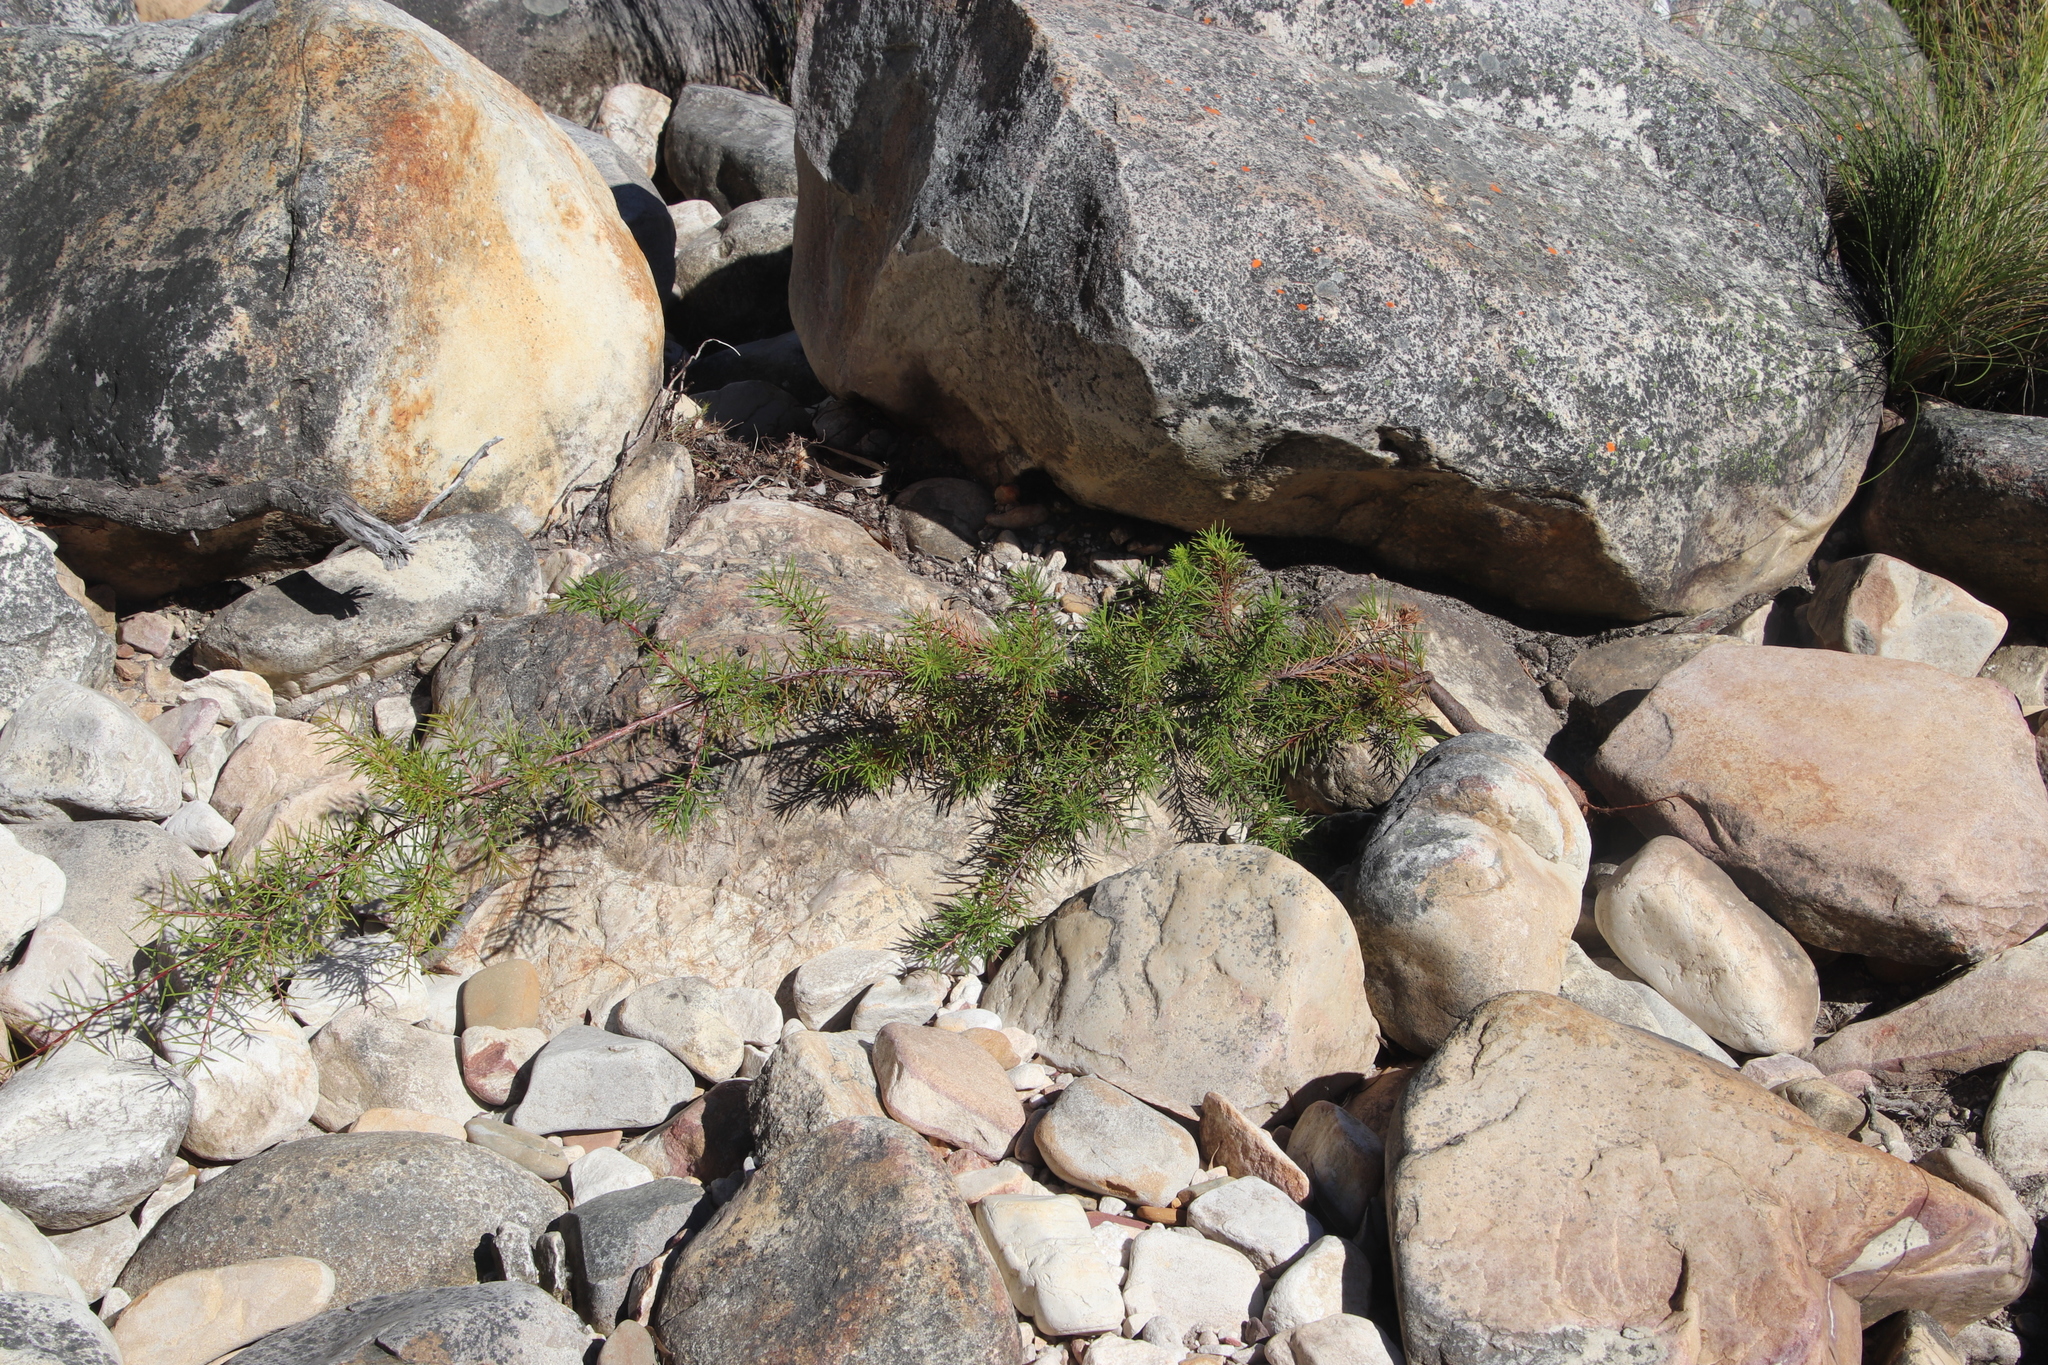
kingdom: Plantae
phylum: Tracheophyta
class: Magnoliopsida
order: Proteales
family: Proteaceae
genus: Hakea
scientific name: Hakea sericea
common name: Needle bush
